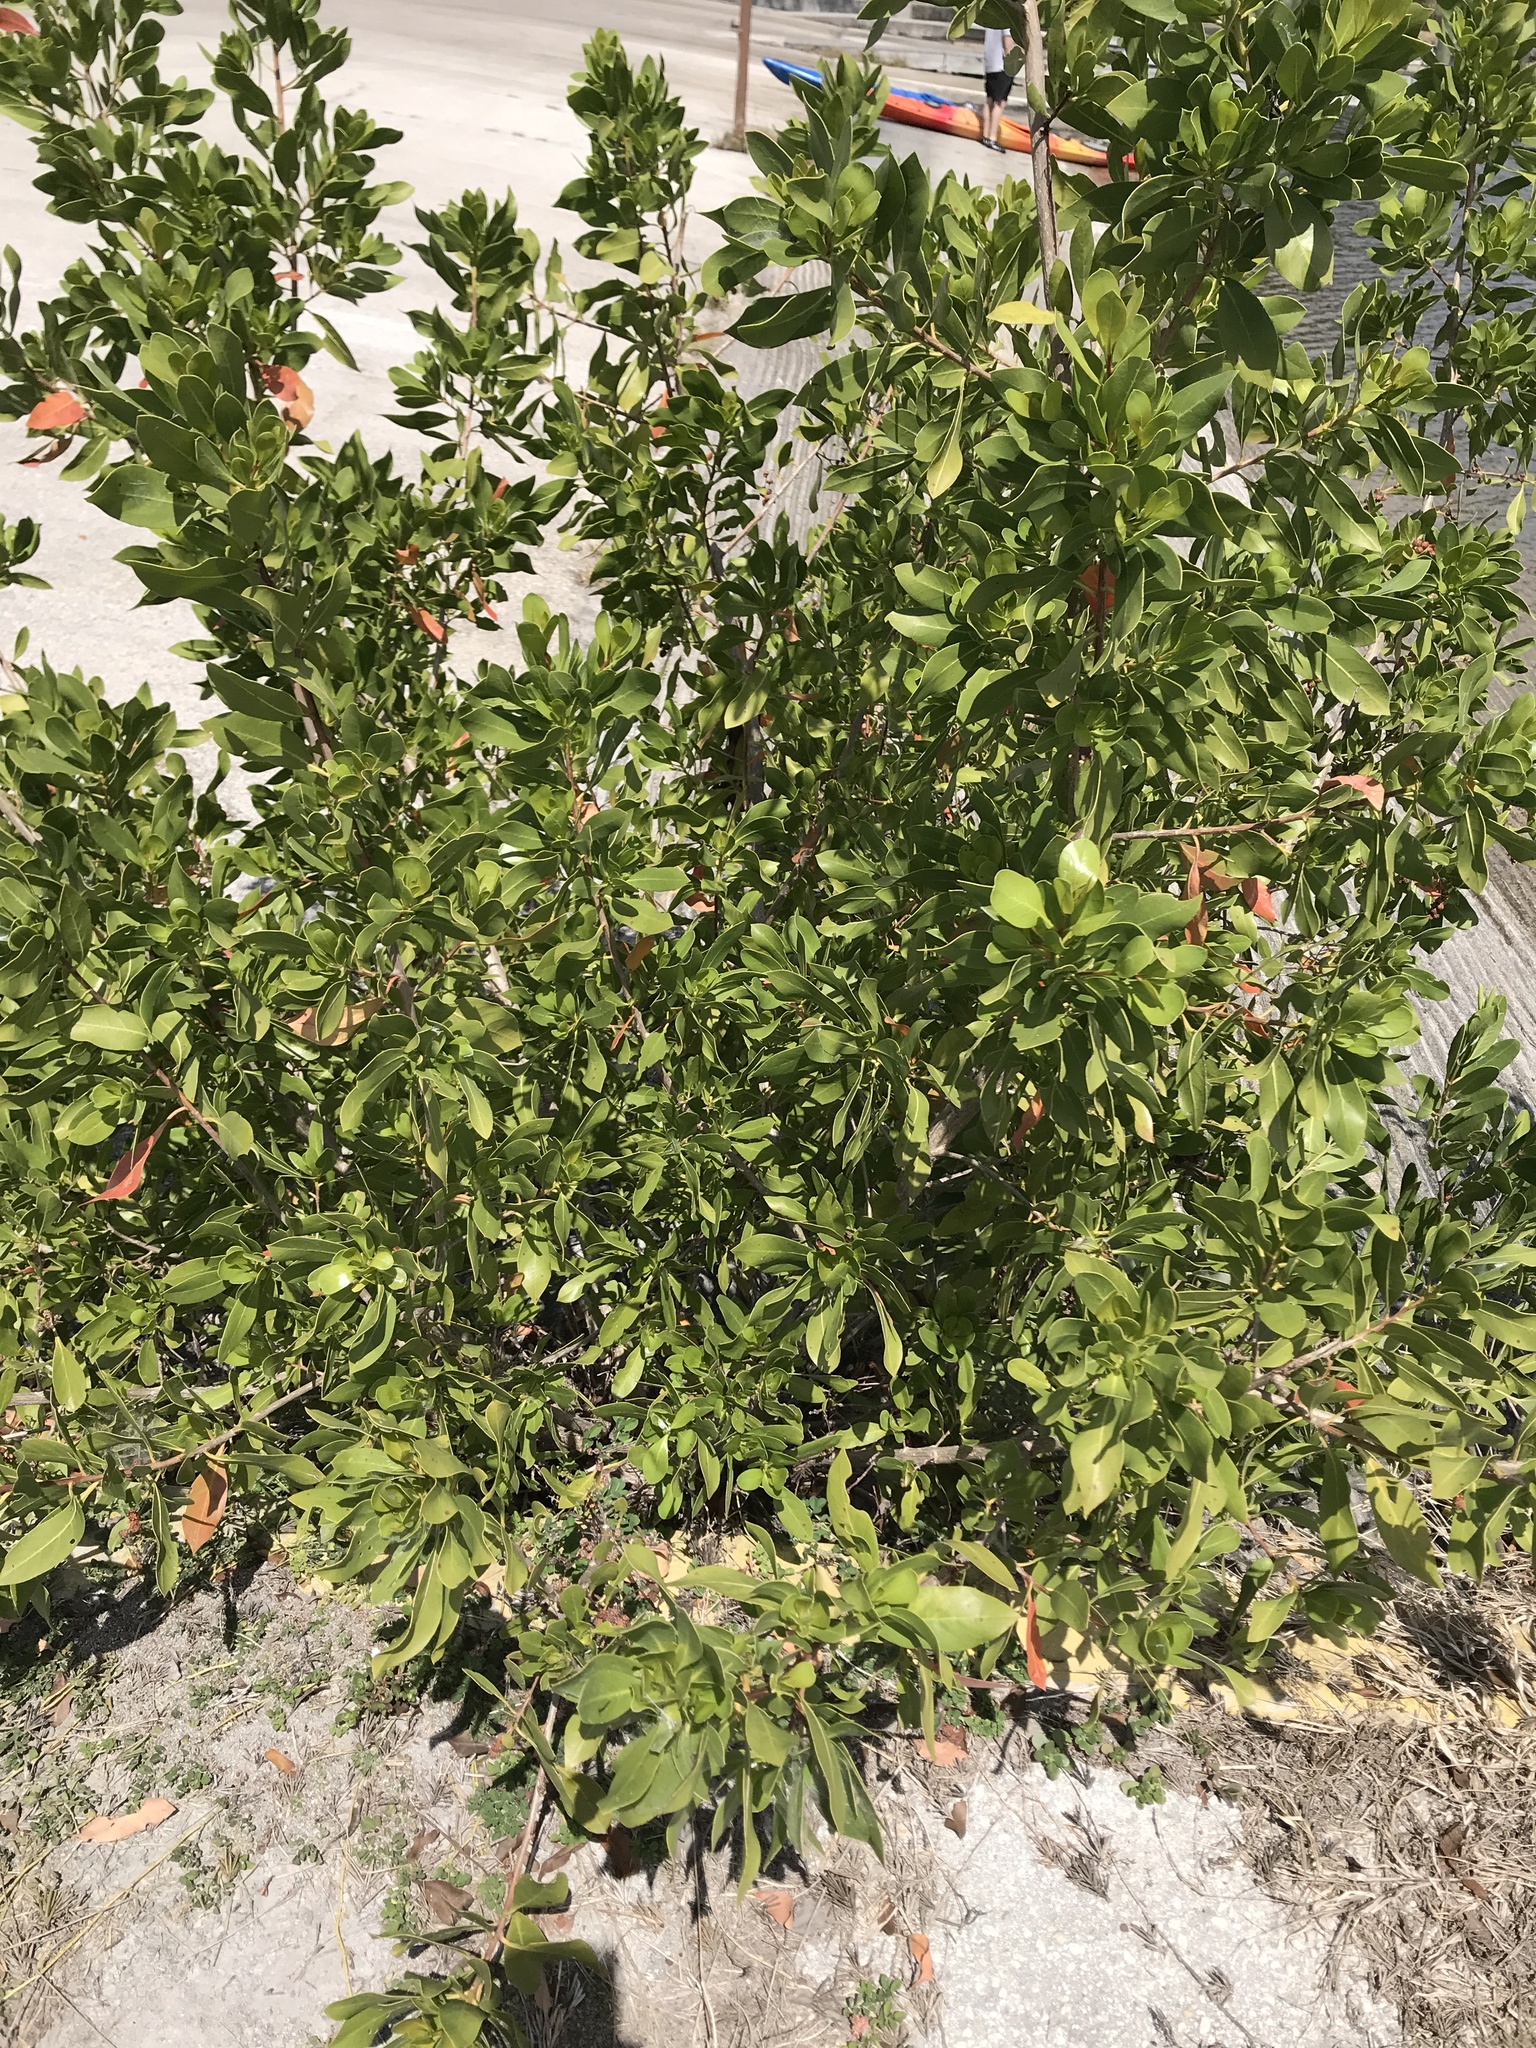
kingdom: Plantae
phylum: Tracheophyta
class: Magnoliopsida
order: Myrtales
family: Combretaceae
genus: Conocarpus
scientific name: Conocarpus erectus
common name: Button mangrove
